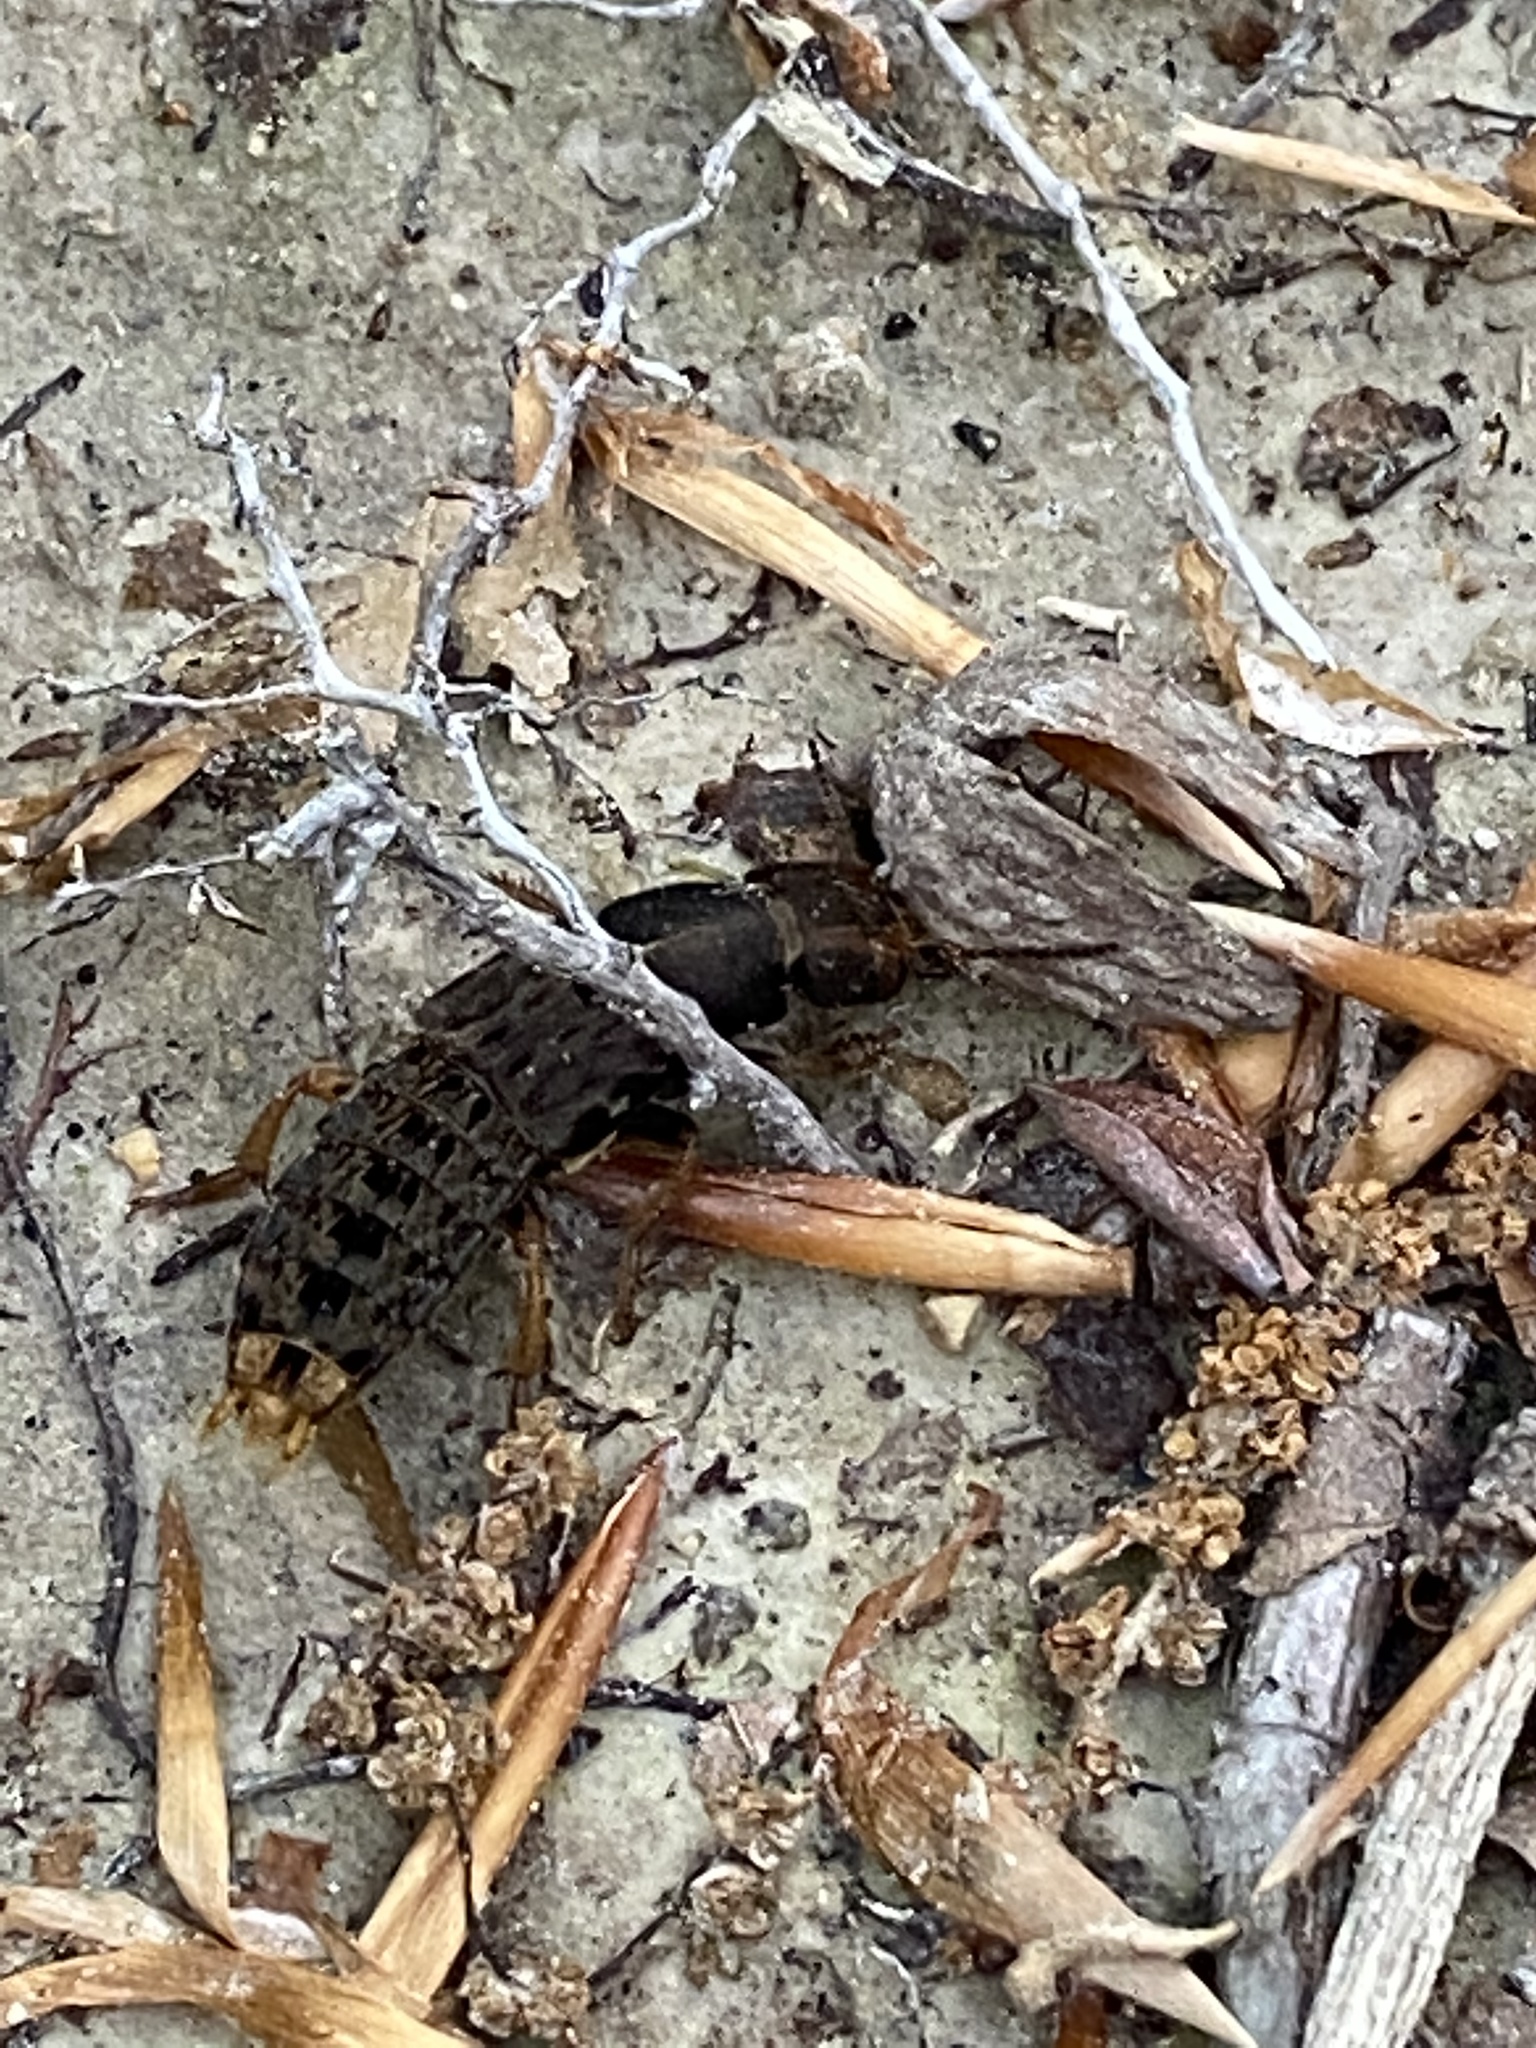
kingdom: Animalia
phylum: Arthropoda
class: Insecta
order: Coleoptera
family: Staphylinidae
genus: Platydracus
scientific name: Platydracus maculosus
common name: Brown rove beetle
